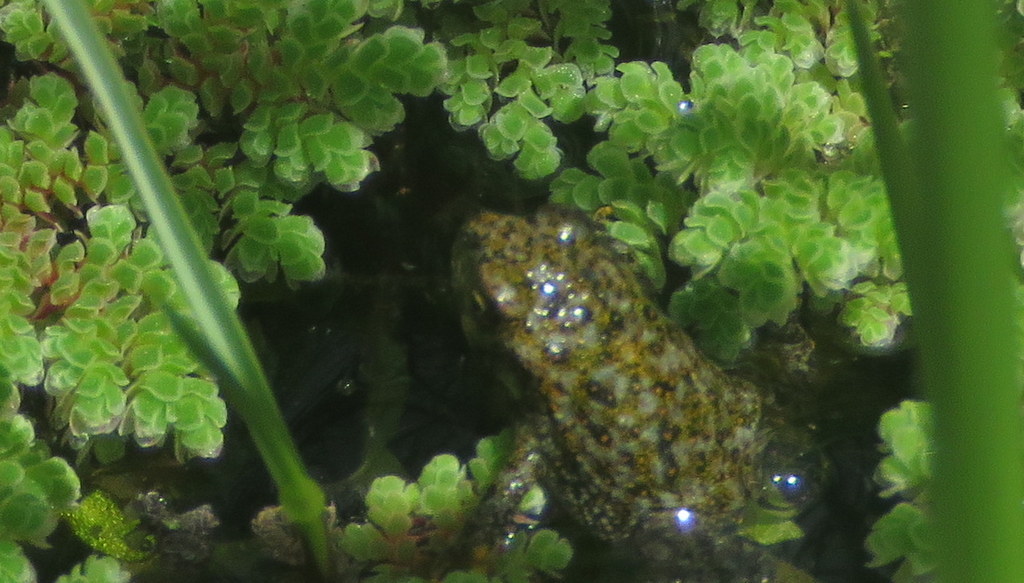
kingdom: Animalia
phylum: Chordata
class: Amphibia
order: Anura
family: Bufonidae
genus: Rhinella
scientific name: Rhinella arenarum
